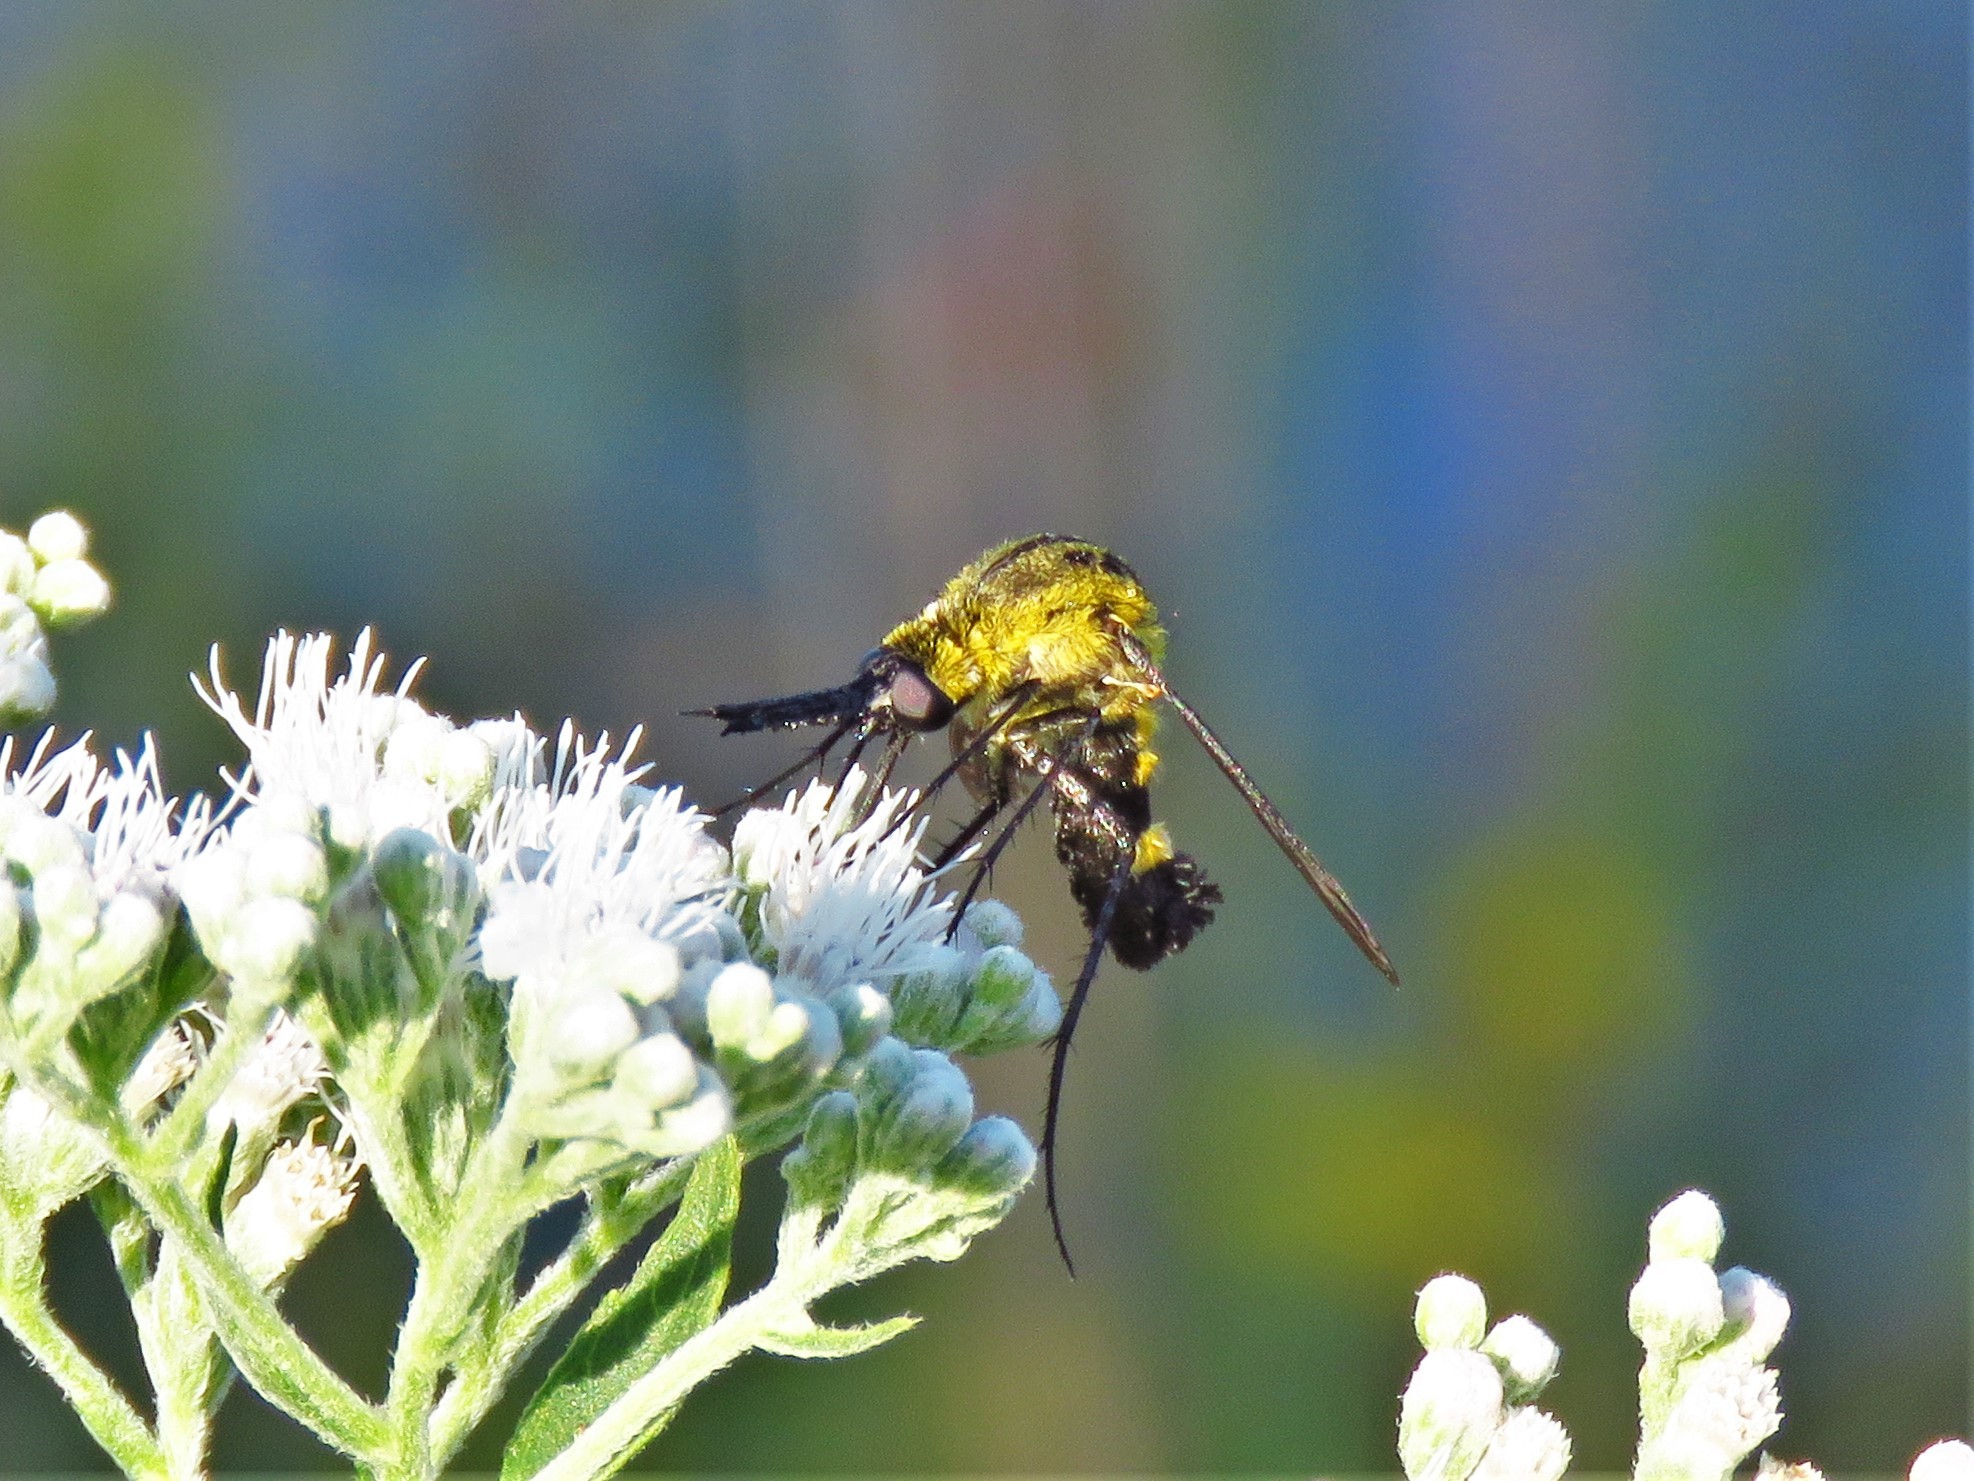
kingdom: Animalia
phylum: Arthropoda
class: Insecta
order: Diptera
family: Bombyliidae
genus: Lepidophora
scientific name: Lepidophora lepidocera
